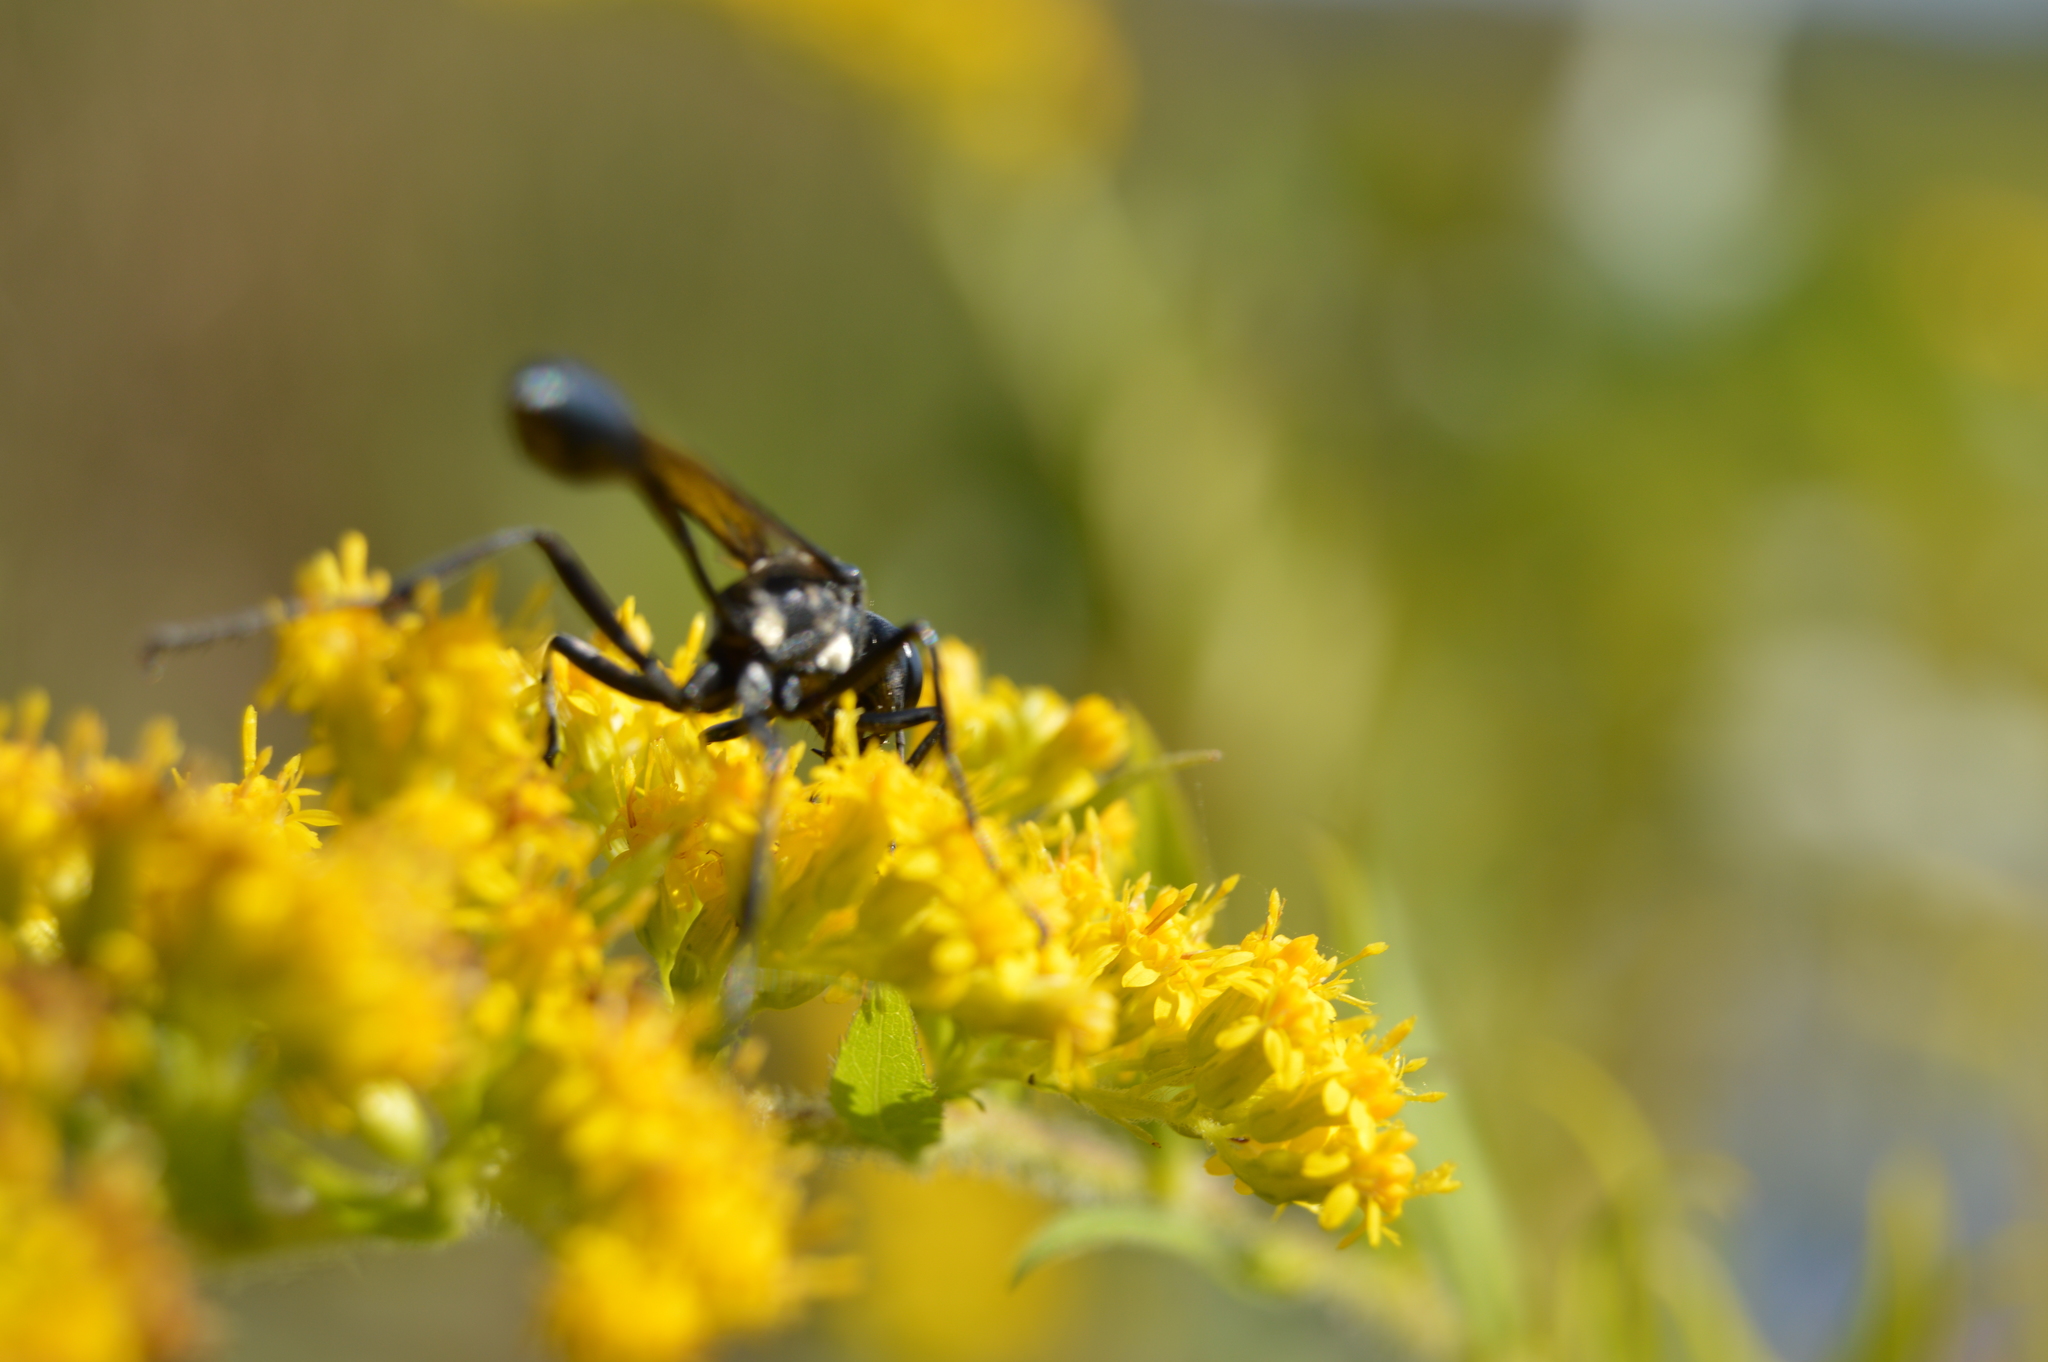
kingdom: Animalia
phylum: Arthropoda
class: Insecta
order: Hymenoptera
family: Sphecidae
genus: Eremnophila
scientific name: Eremnophila aureonotata
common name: Gold-marked thread-waisted wasp
